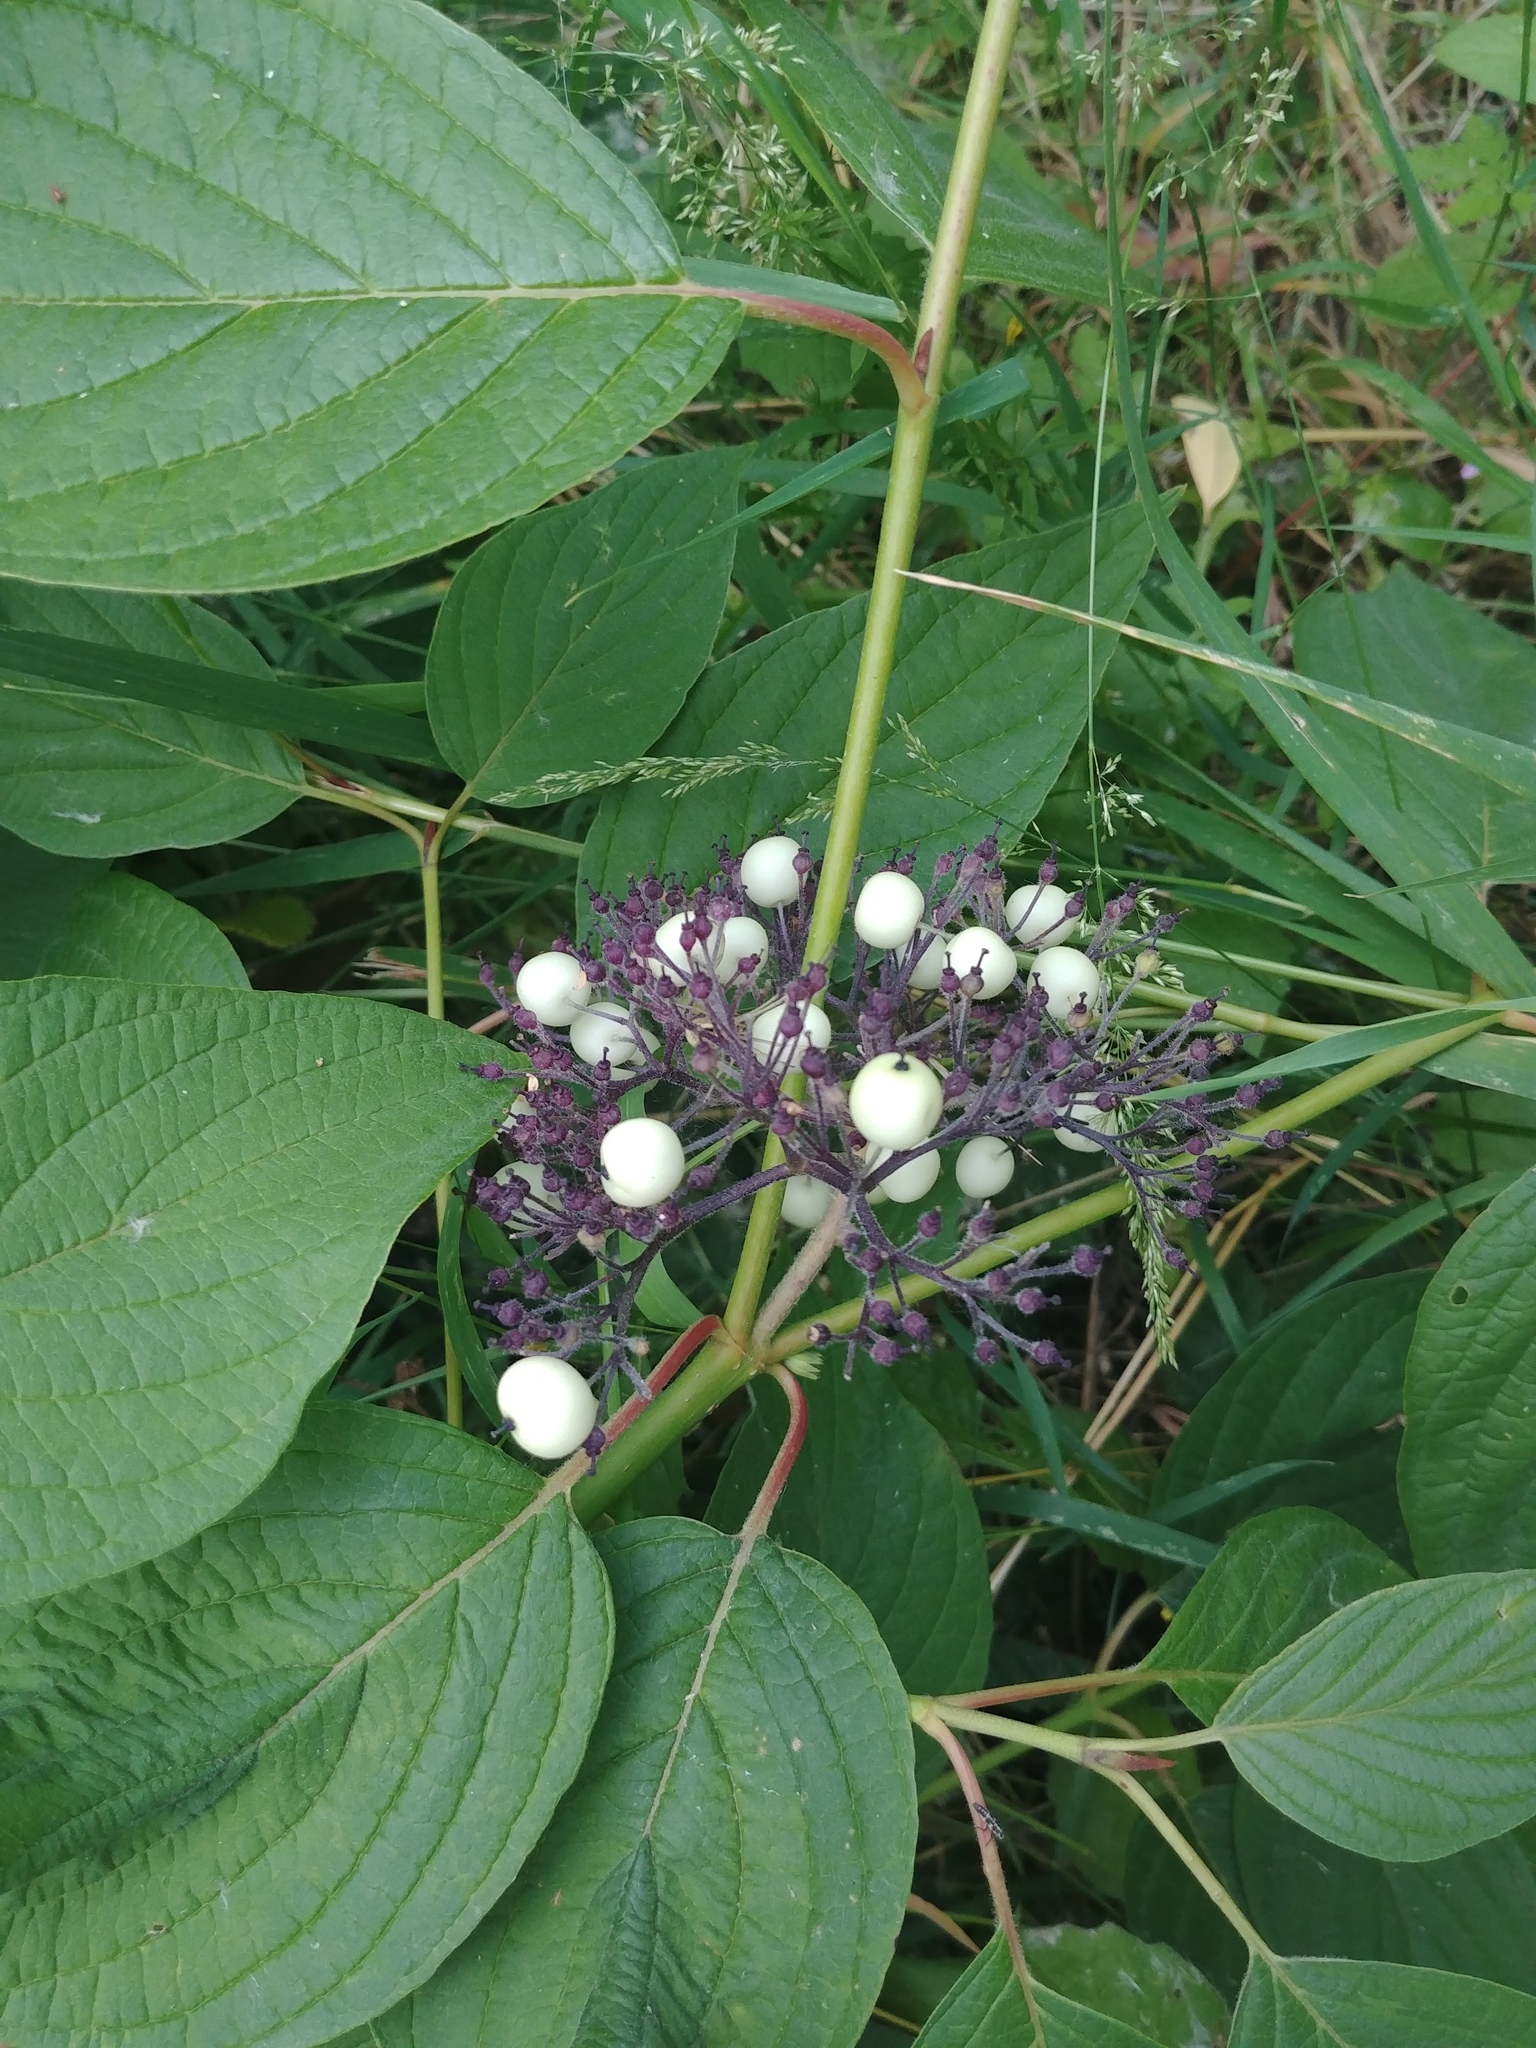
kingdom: Plantae
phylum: Tracheophyta
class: Magnoliopsida
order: Cornales
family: Cornaceae
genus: Cornus
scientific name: Cornus sericea
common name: Red-osier dogwood
